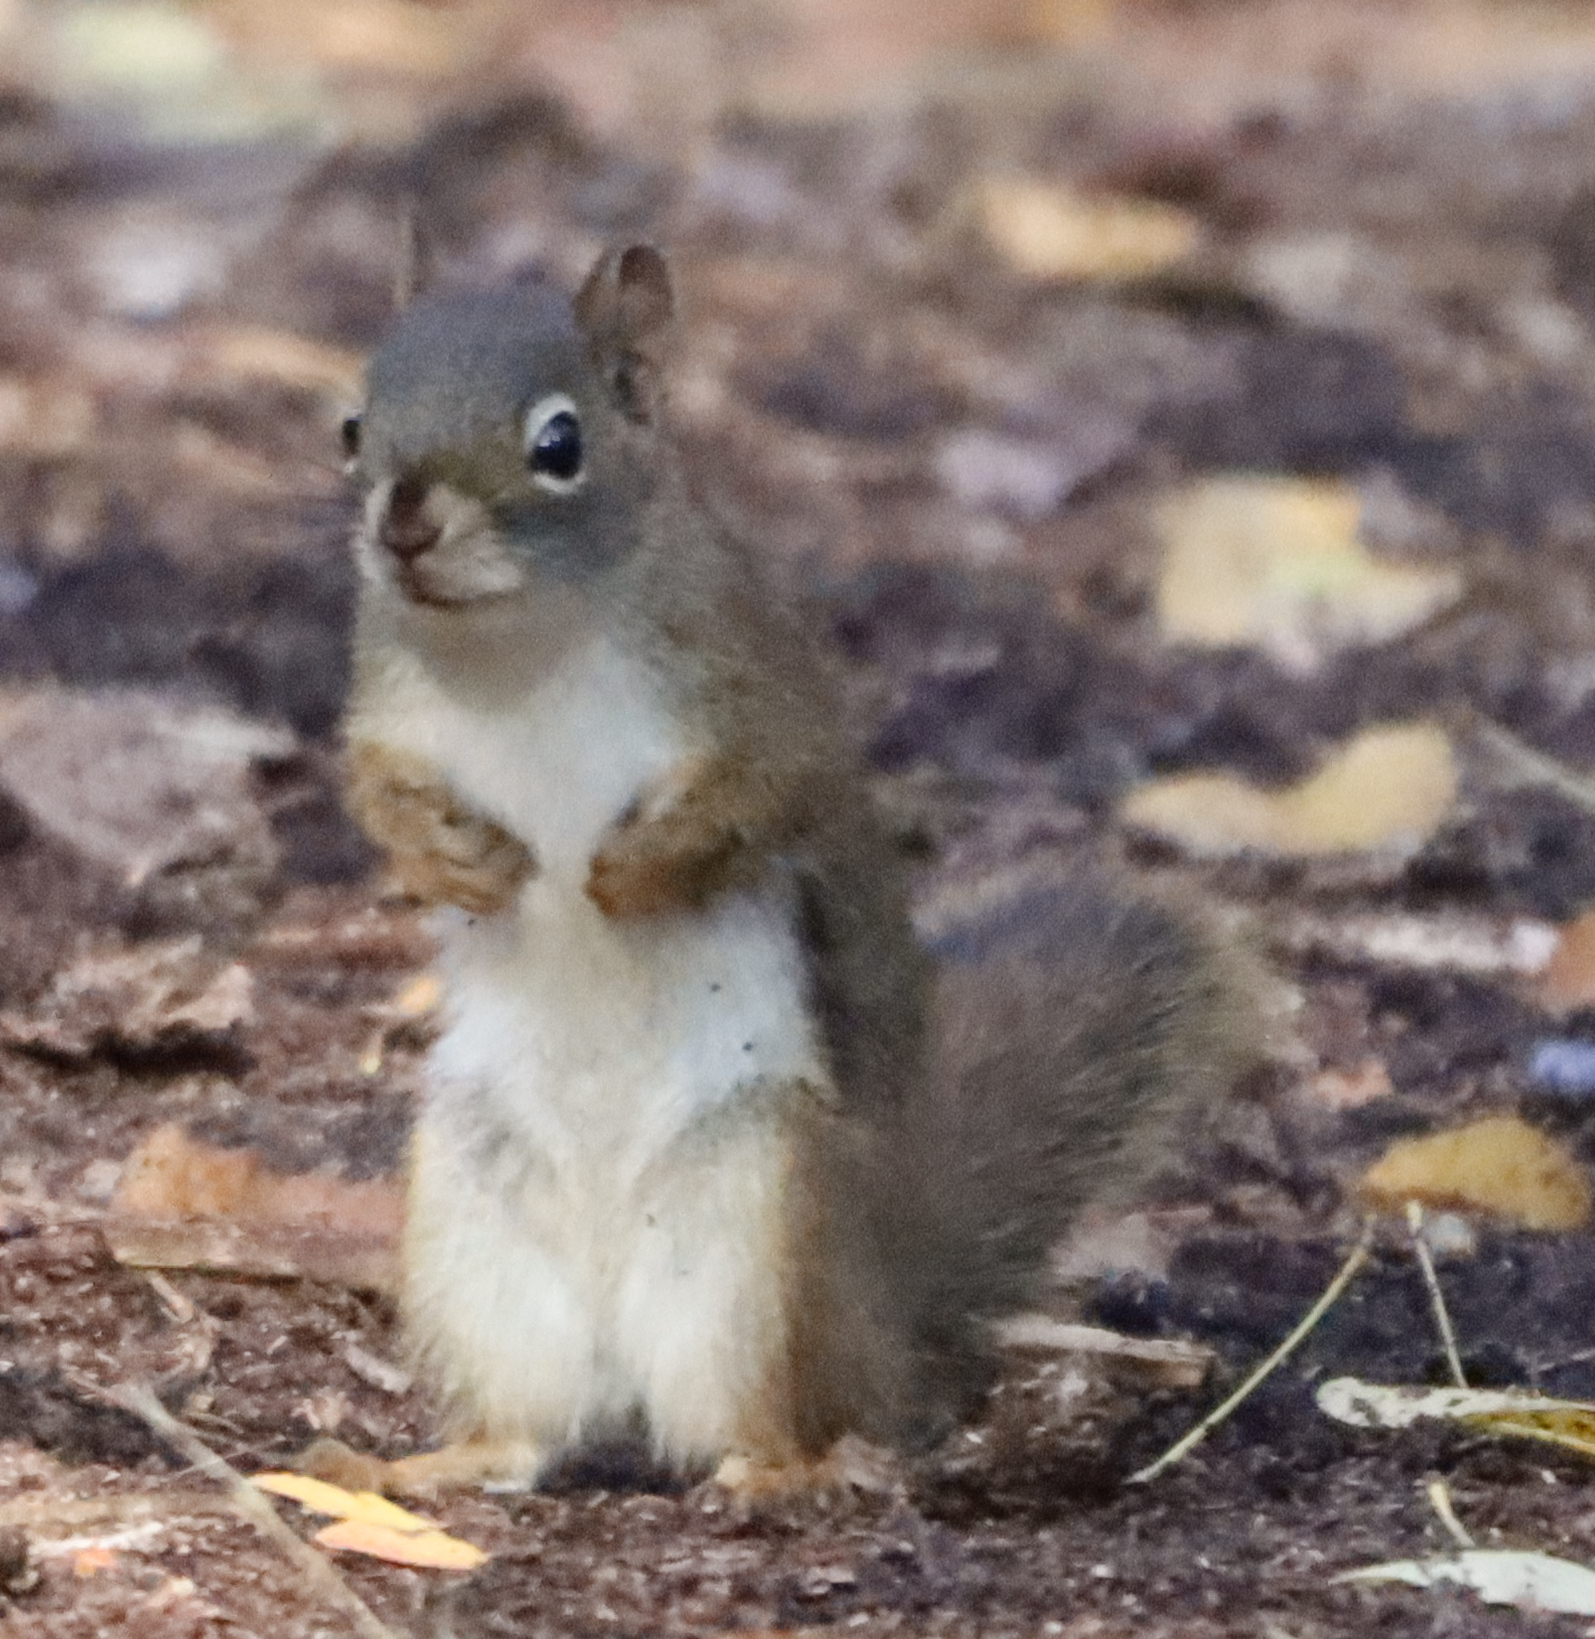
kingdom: Animalia
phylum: Chordata
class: Mammalia
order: Rodentia
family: Sciuridae
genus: Tamiasciurus
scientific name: Tamiasciurus hudsonicus
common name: Red squirrel
